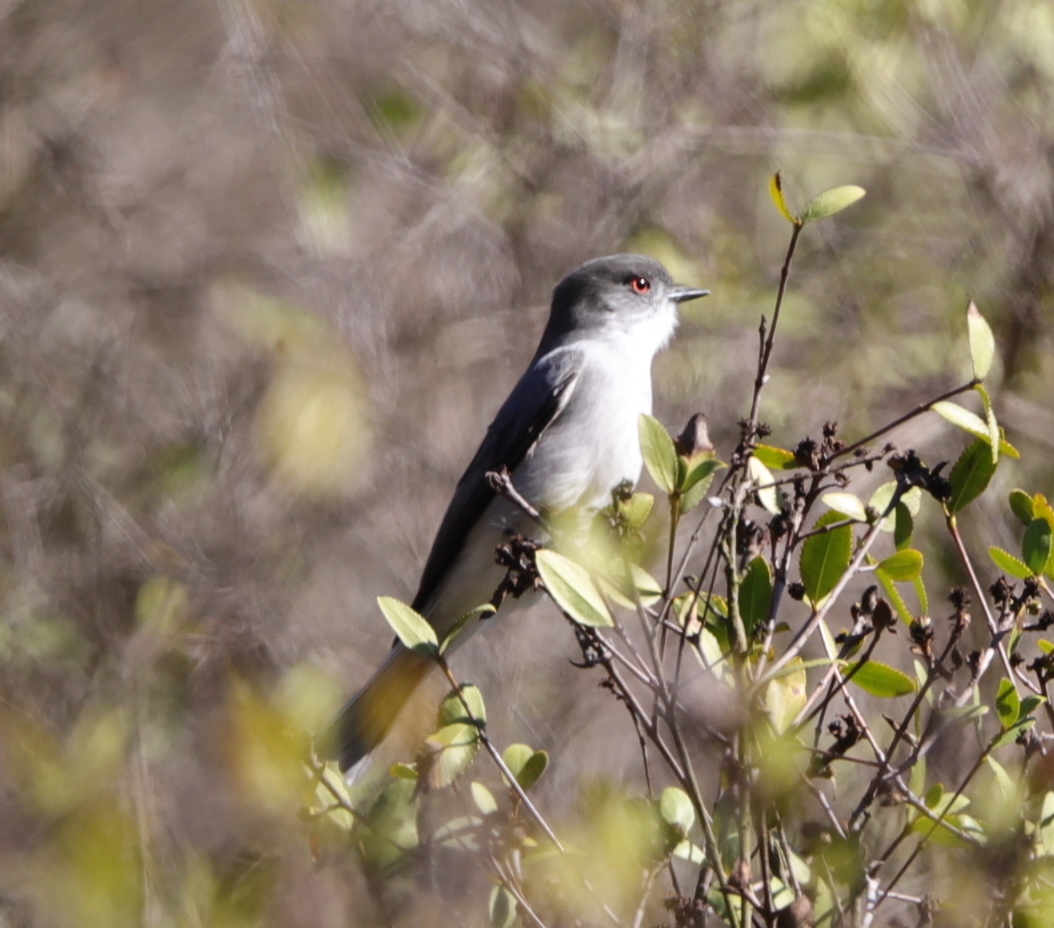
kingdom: Animalia
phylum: Chordata
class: Aves
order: Passeriformes
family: Tyrannidae
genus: Xolmis
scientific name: Xolmis pyrope
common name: Fire-eyed diucon
